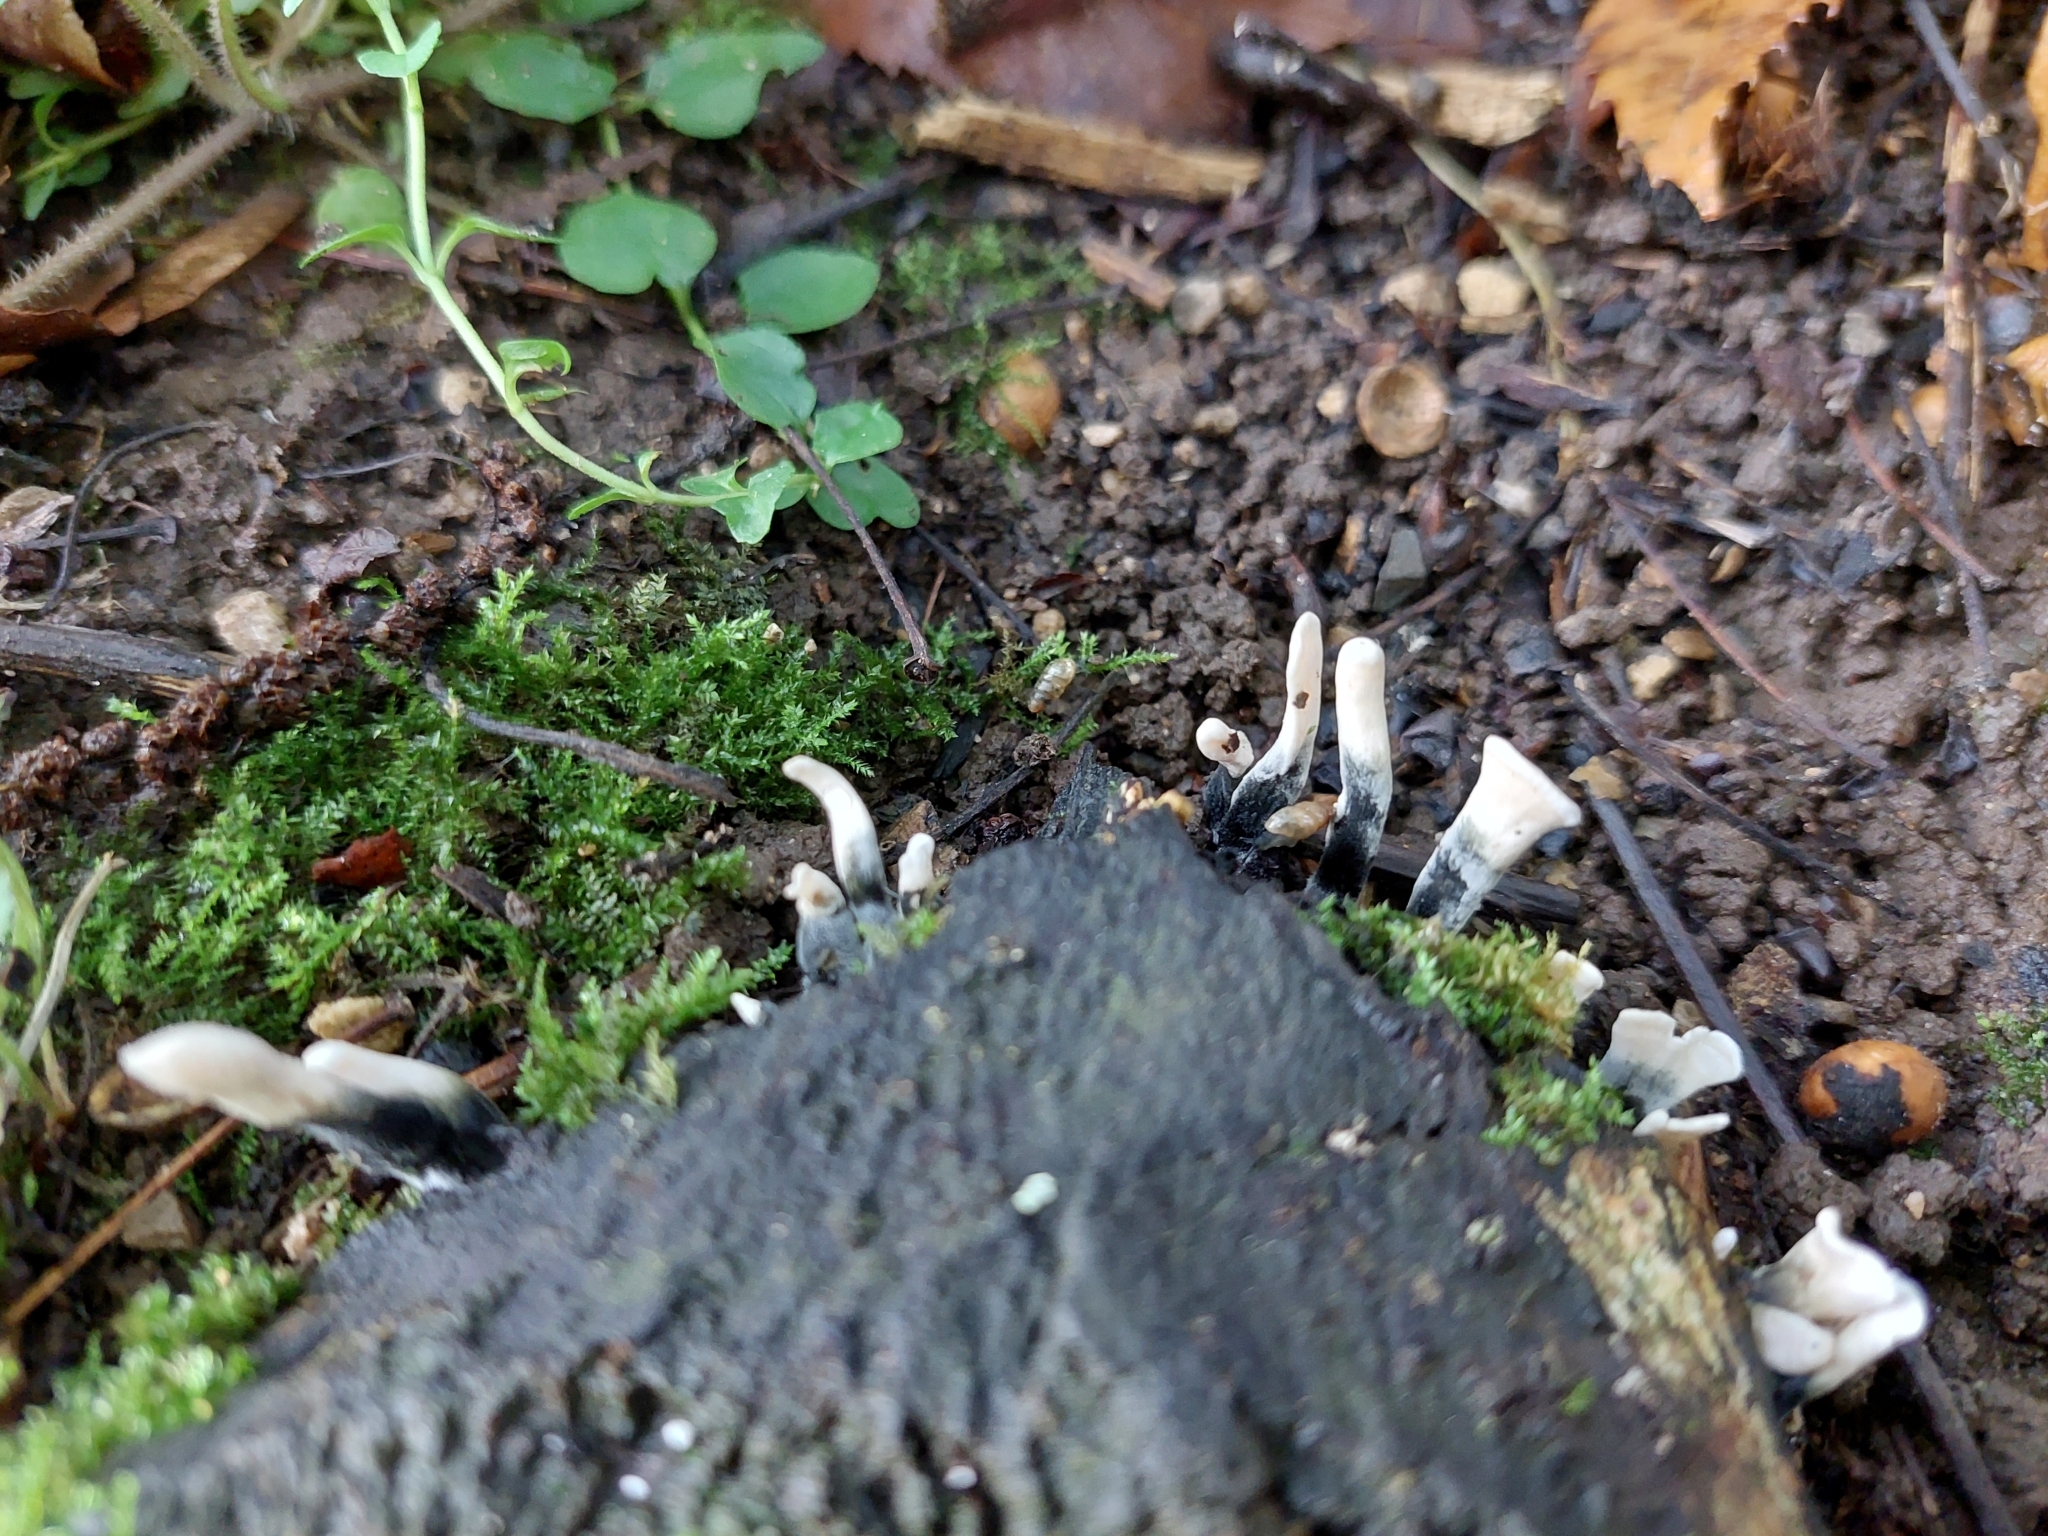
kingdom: Fungi
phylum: Ascomycota
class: Sordariomycetes
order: Xylariales
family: Xylariaceae
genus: Xylaria
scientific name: Xylaria hypoxylon
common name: Candle-snuff fungus
